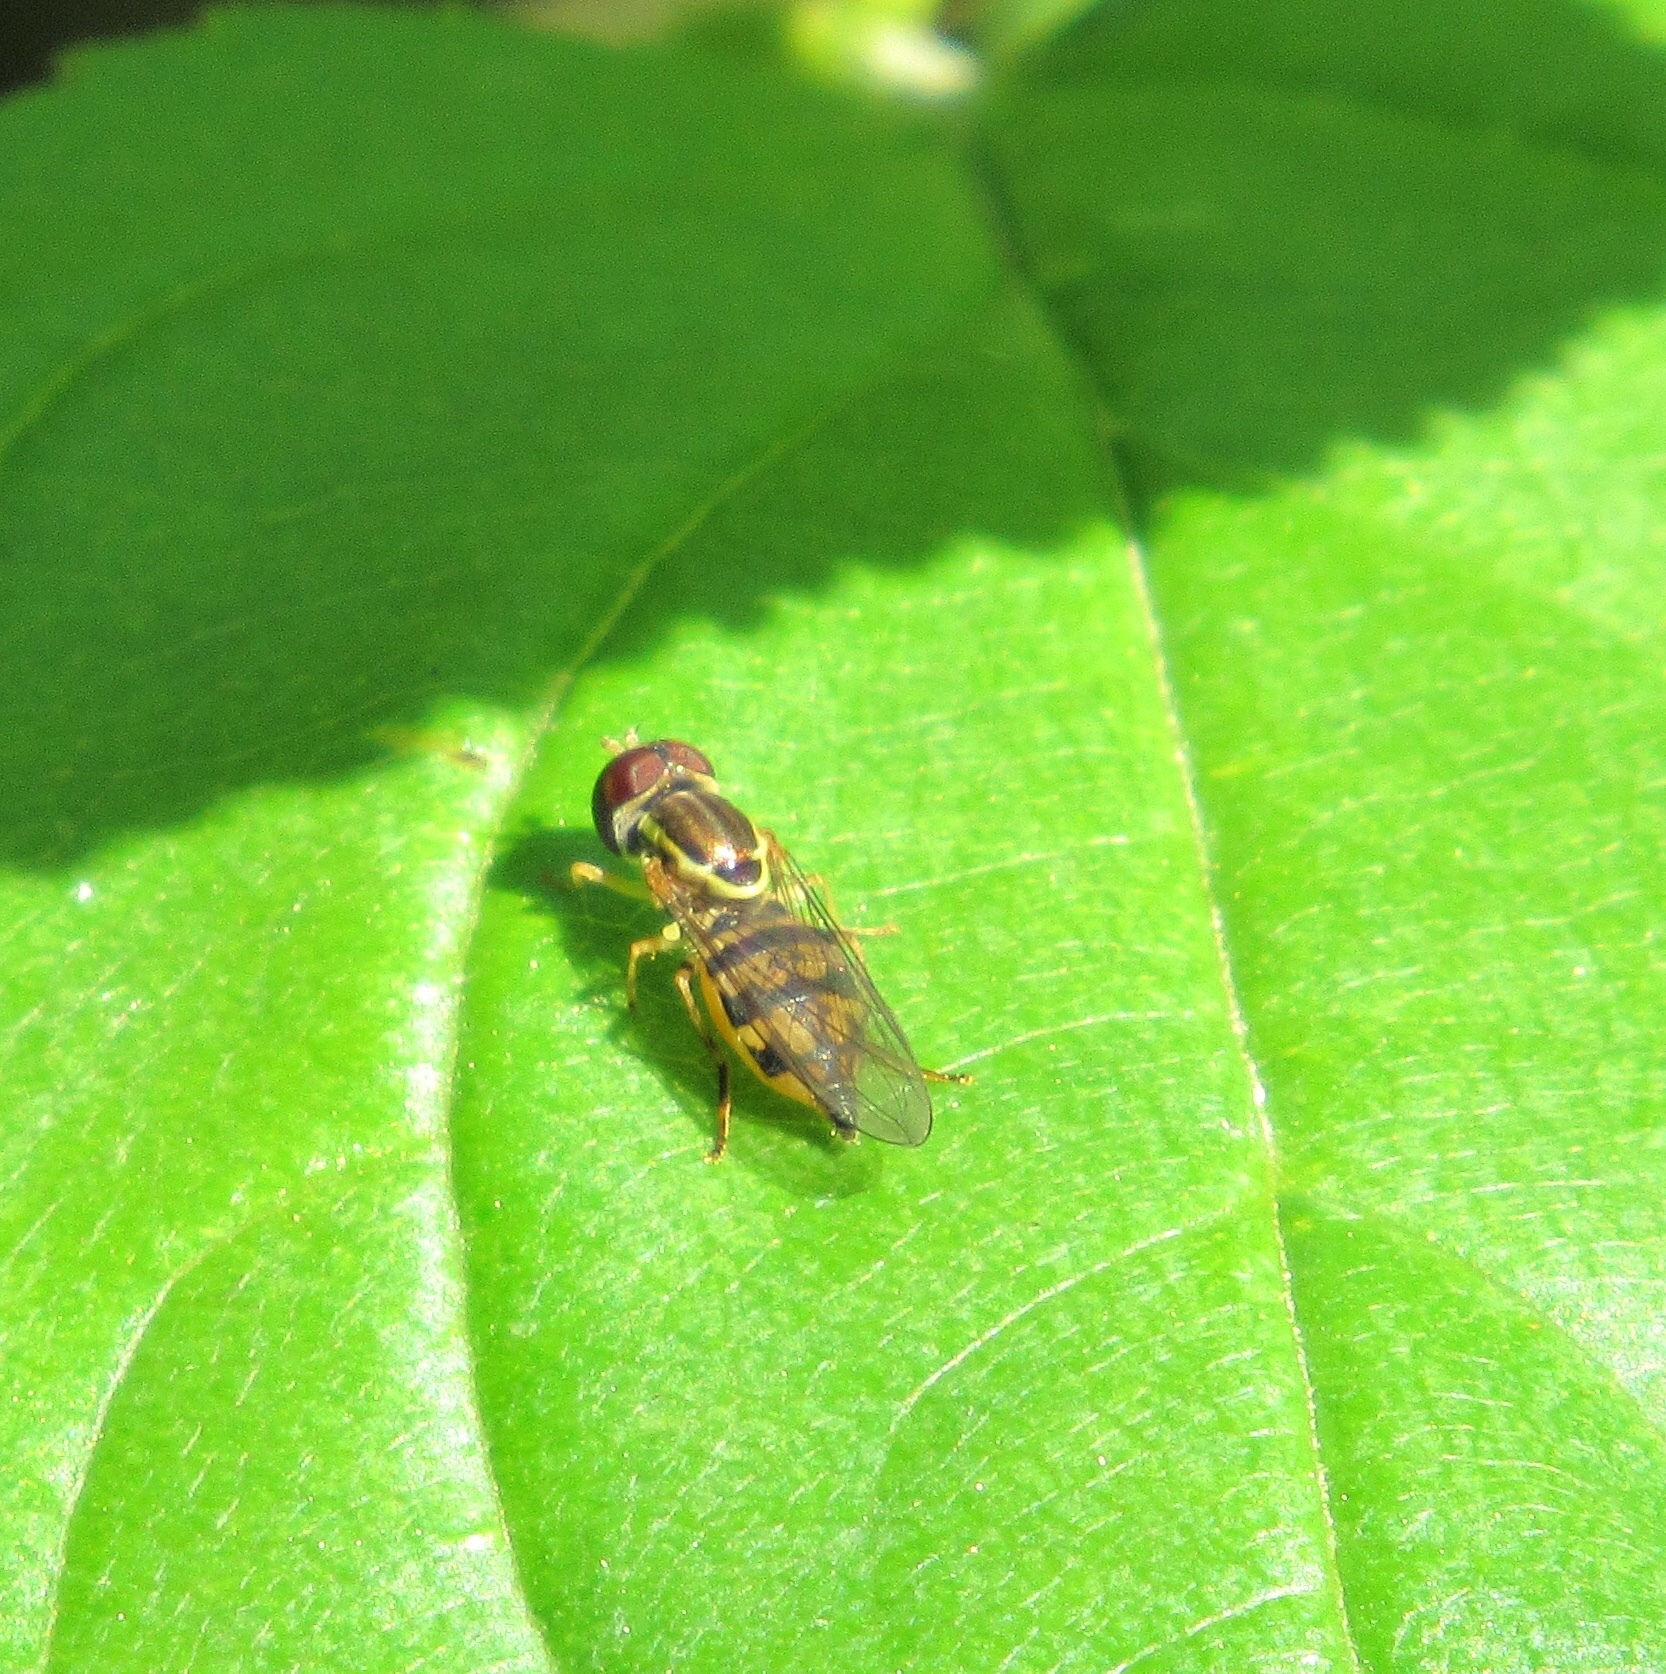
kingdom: Animalia
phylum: Arthropoda
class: Insecta
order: Diptera
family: Syrphidae
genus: Toxomerus
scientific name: Toxomerus geminatus
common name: Eastern calligrapher
